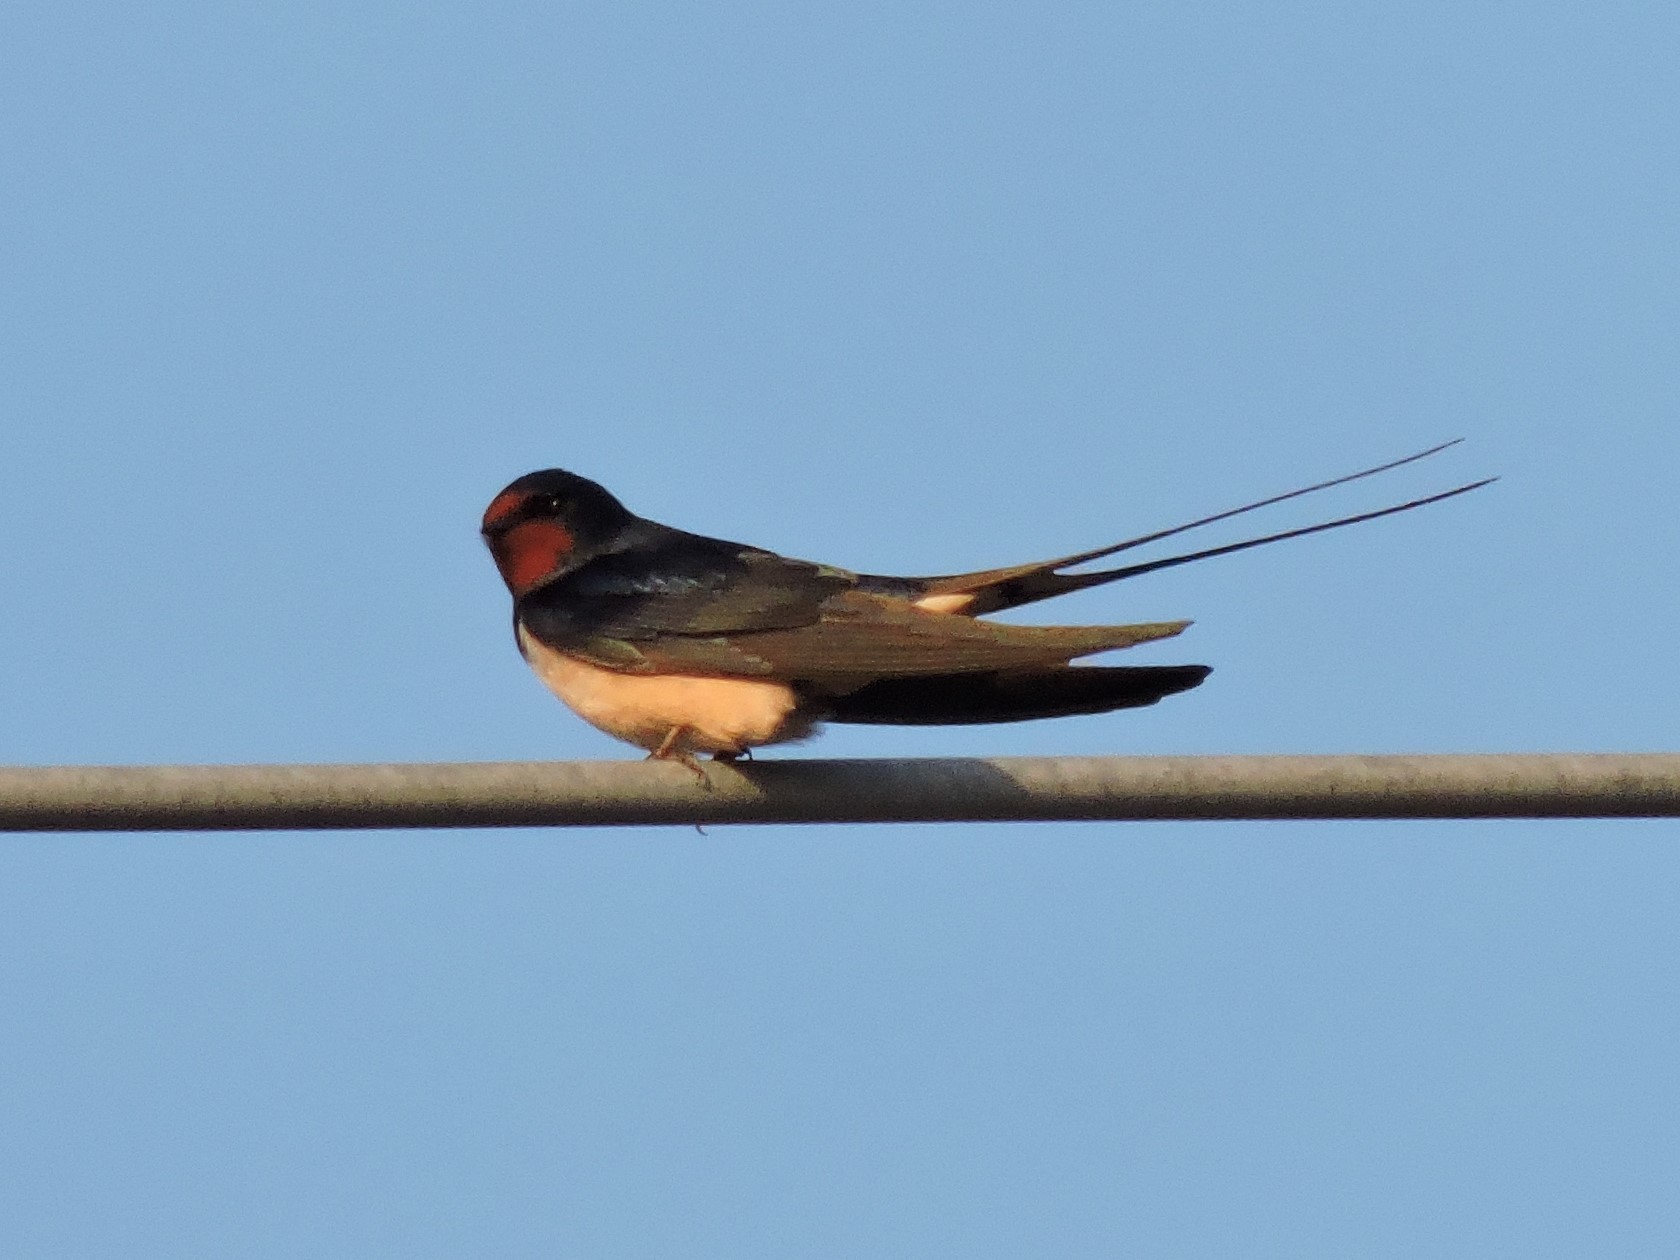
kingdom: Animalia
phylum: Chordata
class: Aves
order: Passeriformes
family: Hirundinidae
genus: Hirundo
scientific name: Hirundo rustica
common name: Barn swallow
